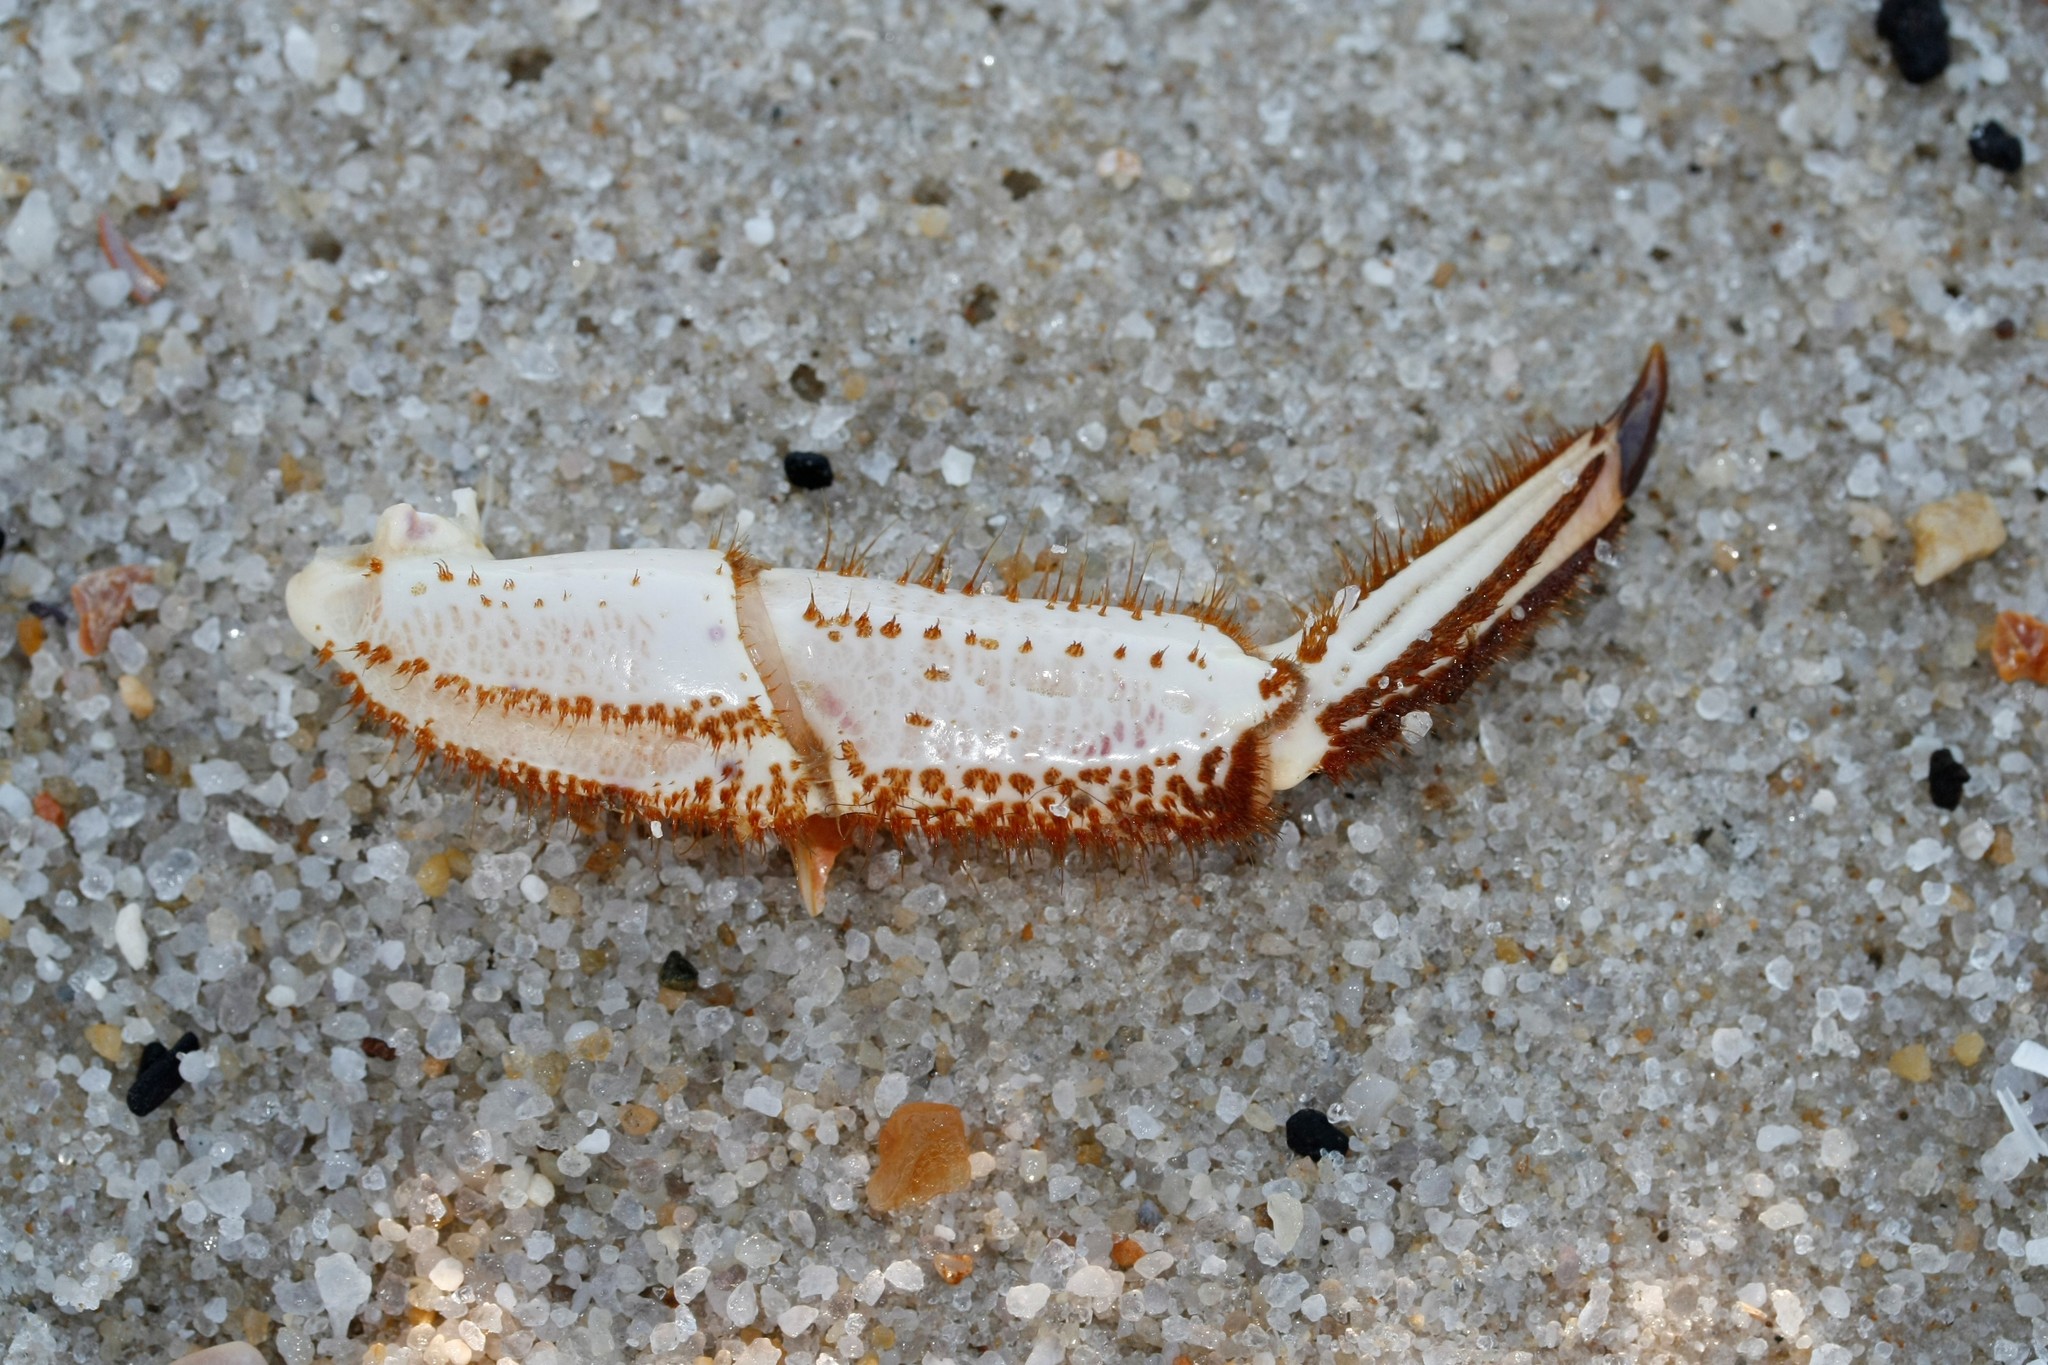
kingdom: Animalia
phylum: Arthropoda
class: Malacostraca
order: Decapoda
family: Cancridae
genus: Cancer
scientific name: Cancer pagurus
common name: Edible crab
